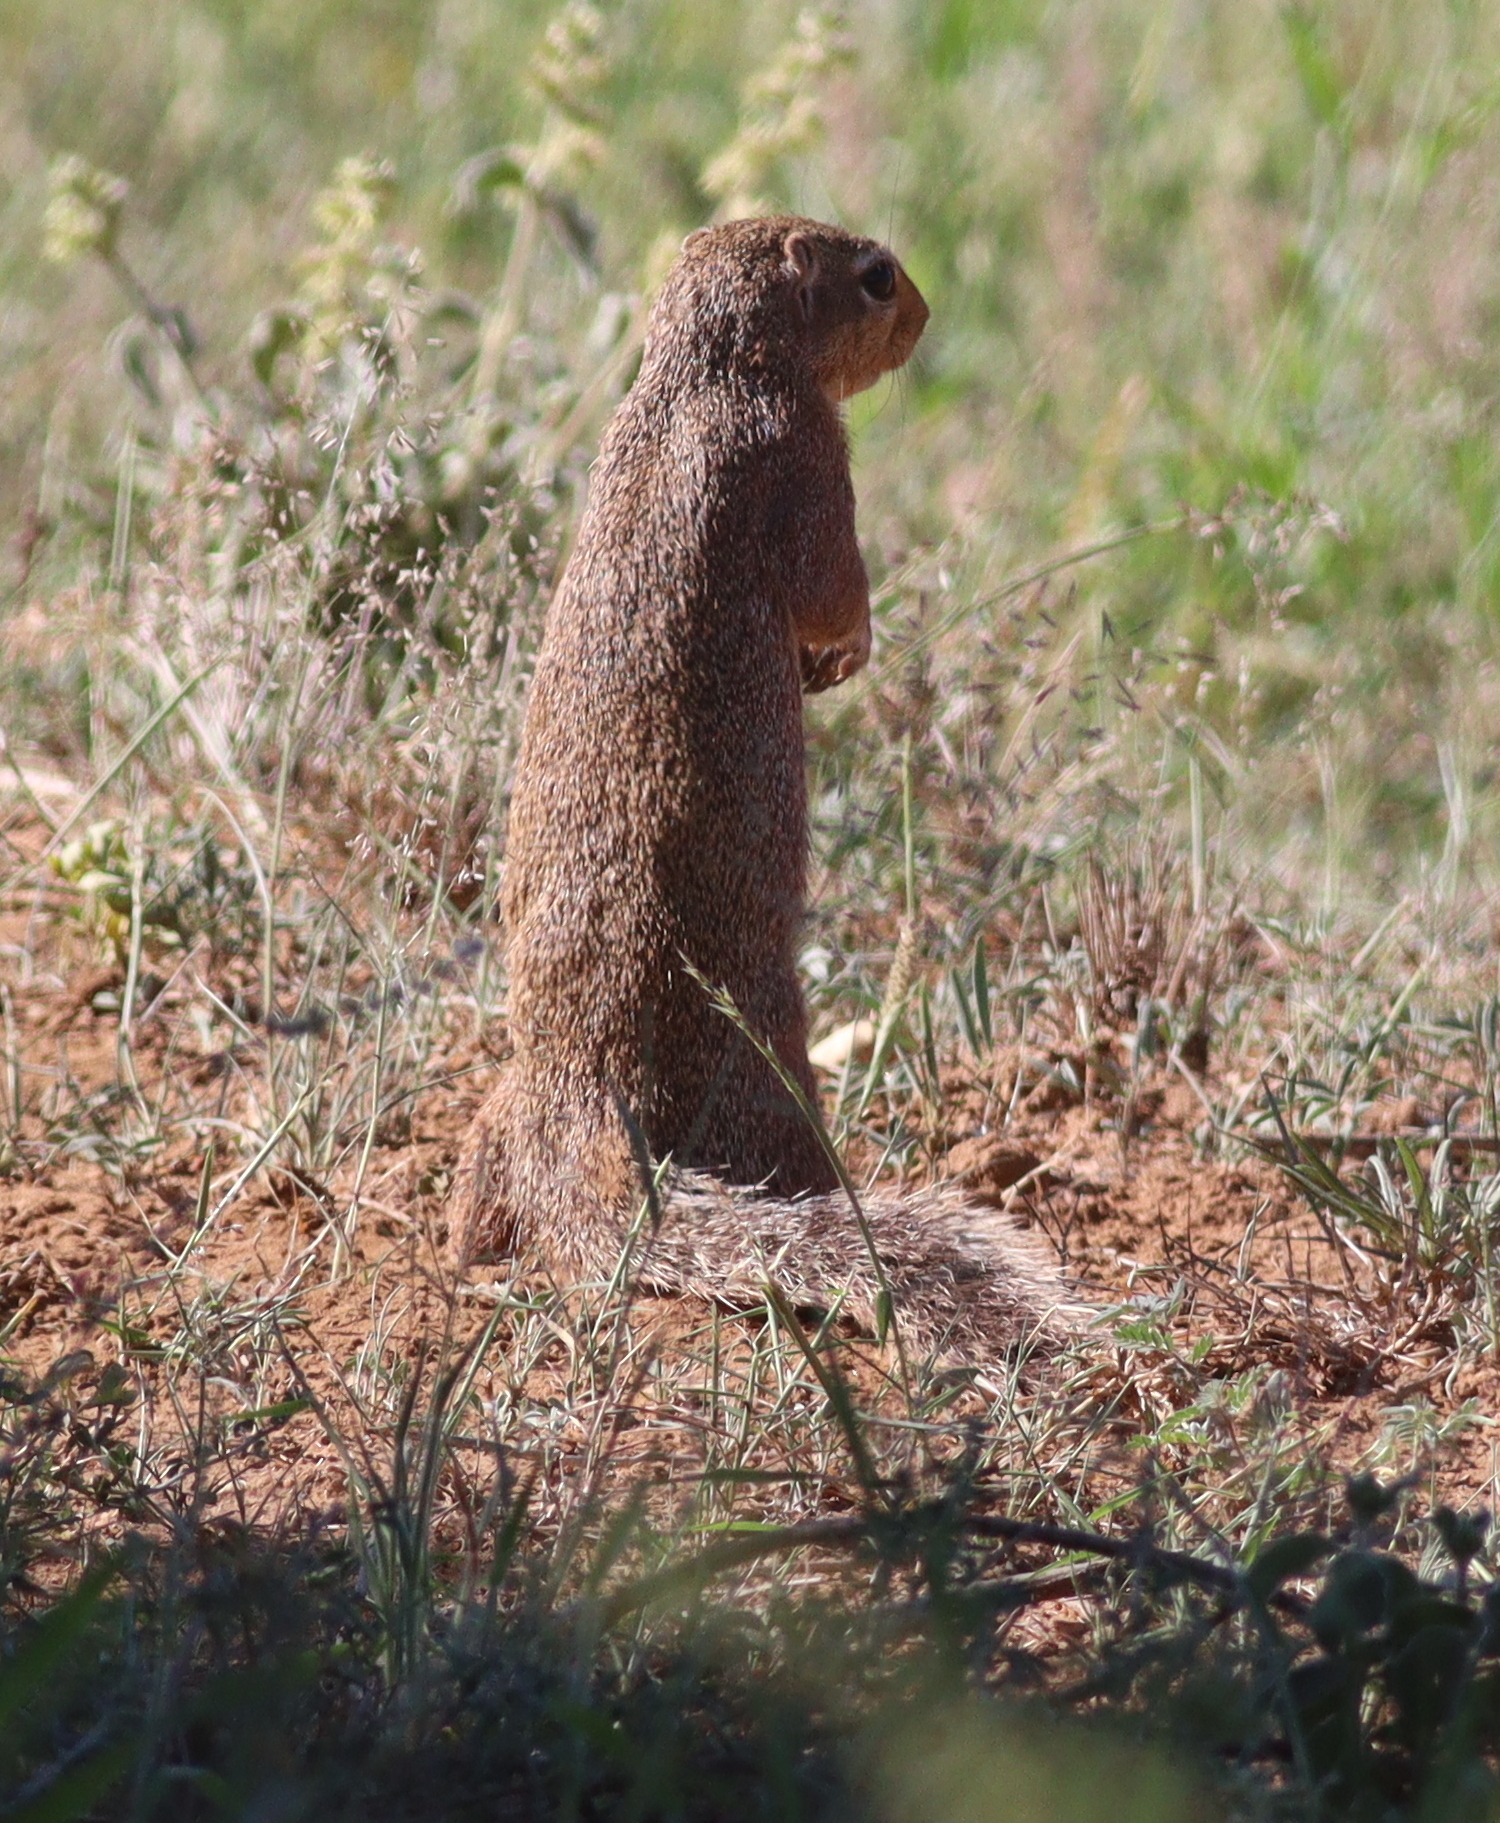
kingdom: Animalia
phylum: Chordata
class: Mammalia
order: Rodentia
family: Sciuridae
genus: Xerus
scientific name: Xerus rutilus
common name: Unstriped ground squirrel
